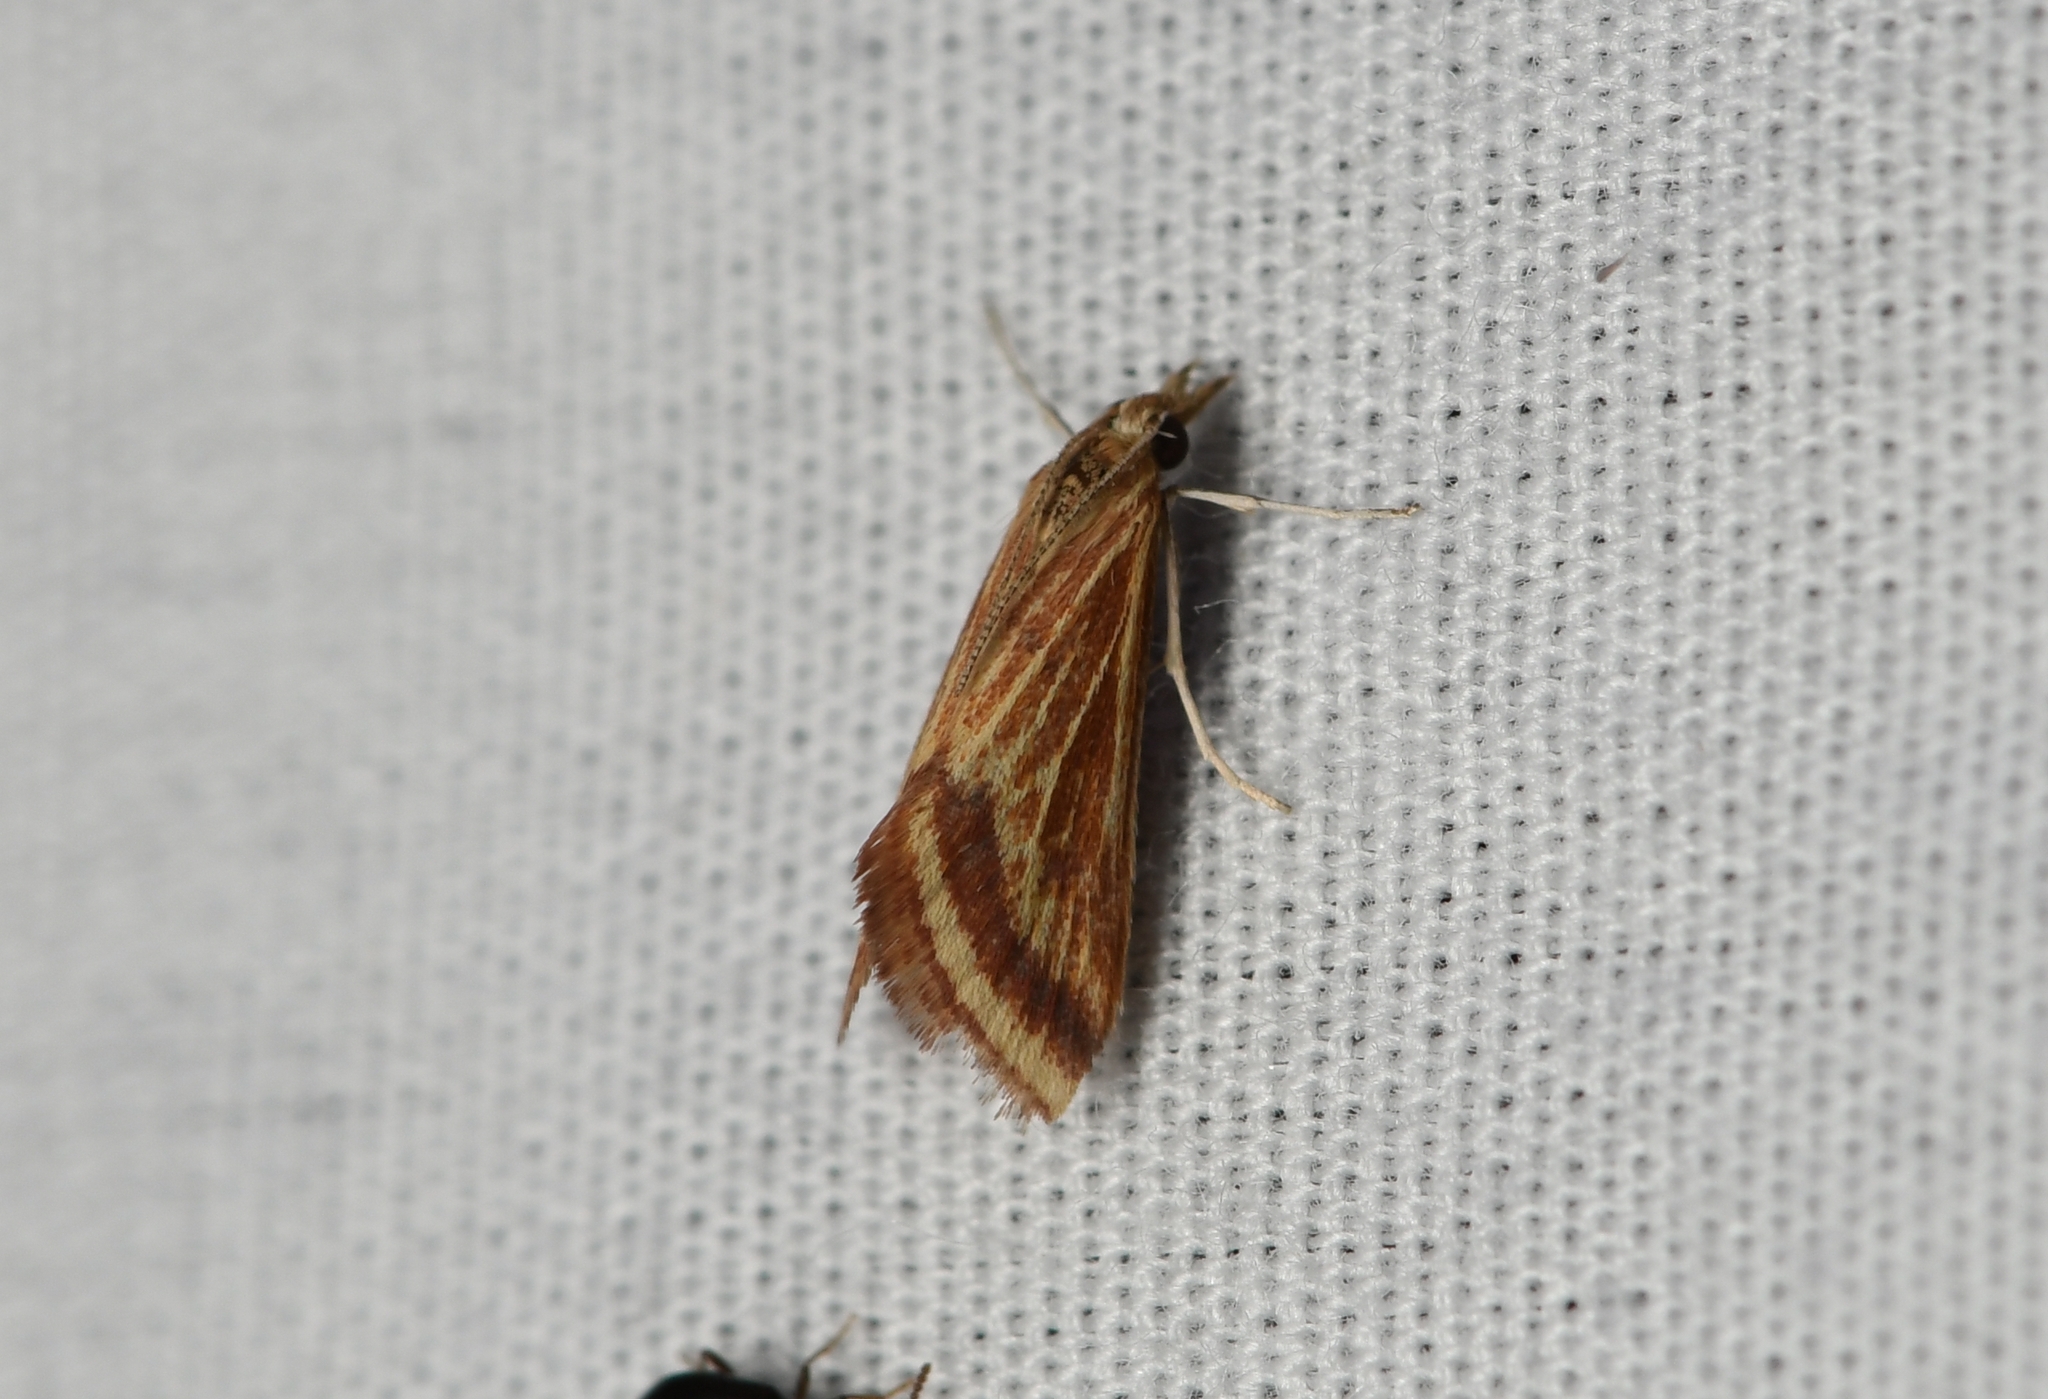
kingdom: Animalia
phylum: Arthropoda
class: Insecta
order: Lepidoptera
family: Crambidae
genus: Microtheoris
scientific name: Microtheoris ophionalis
